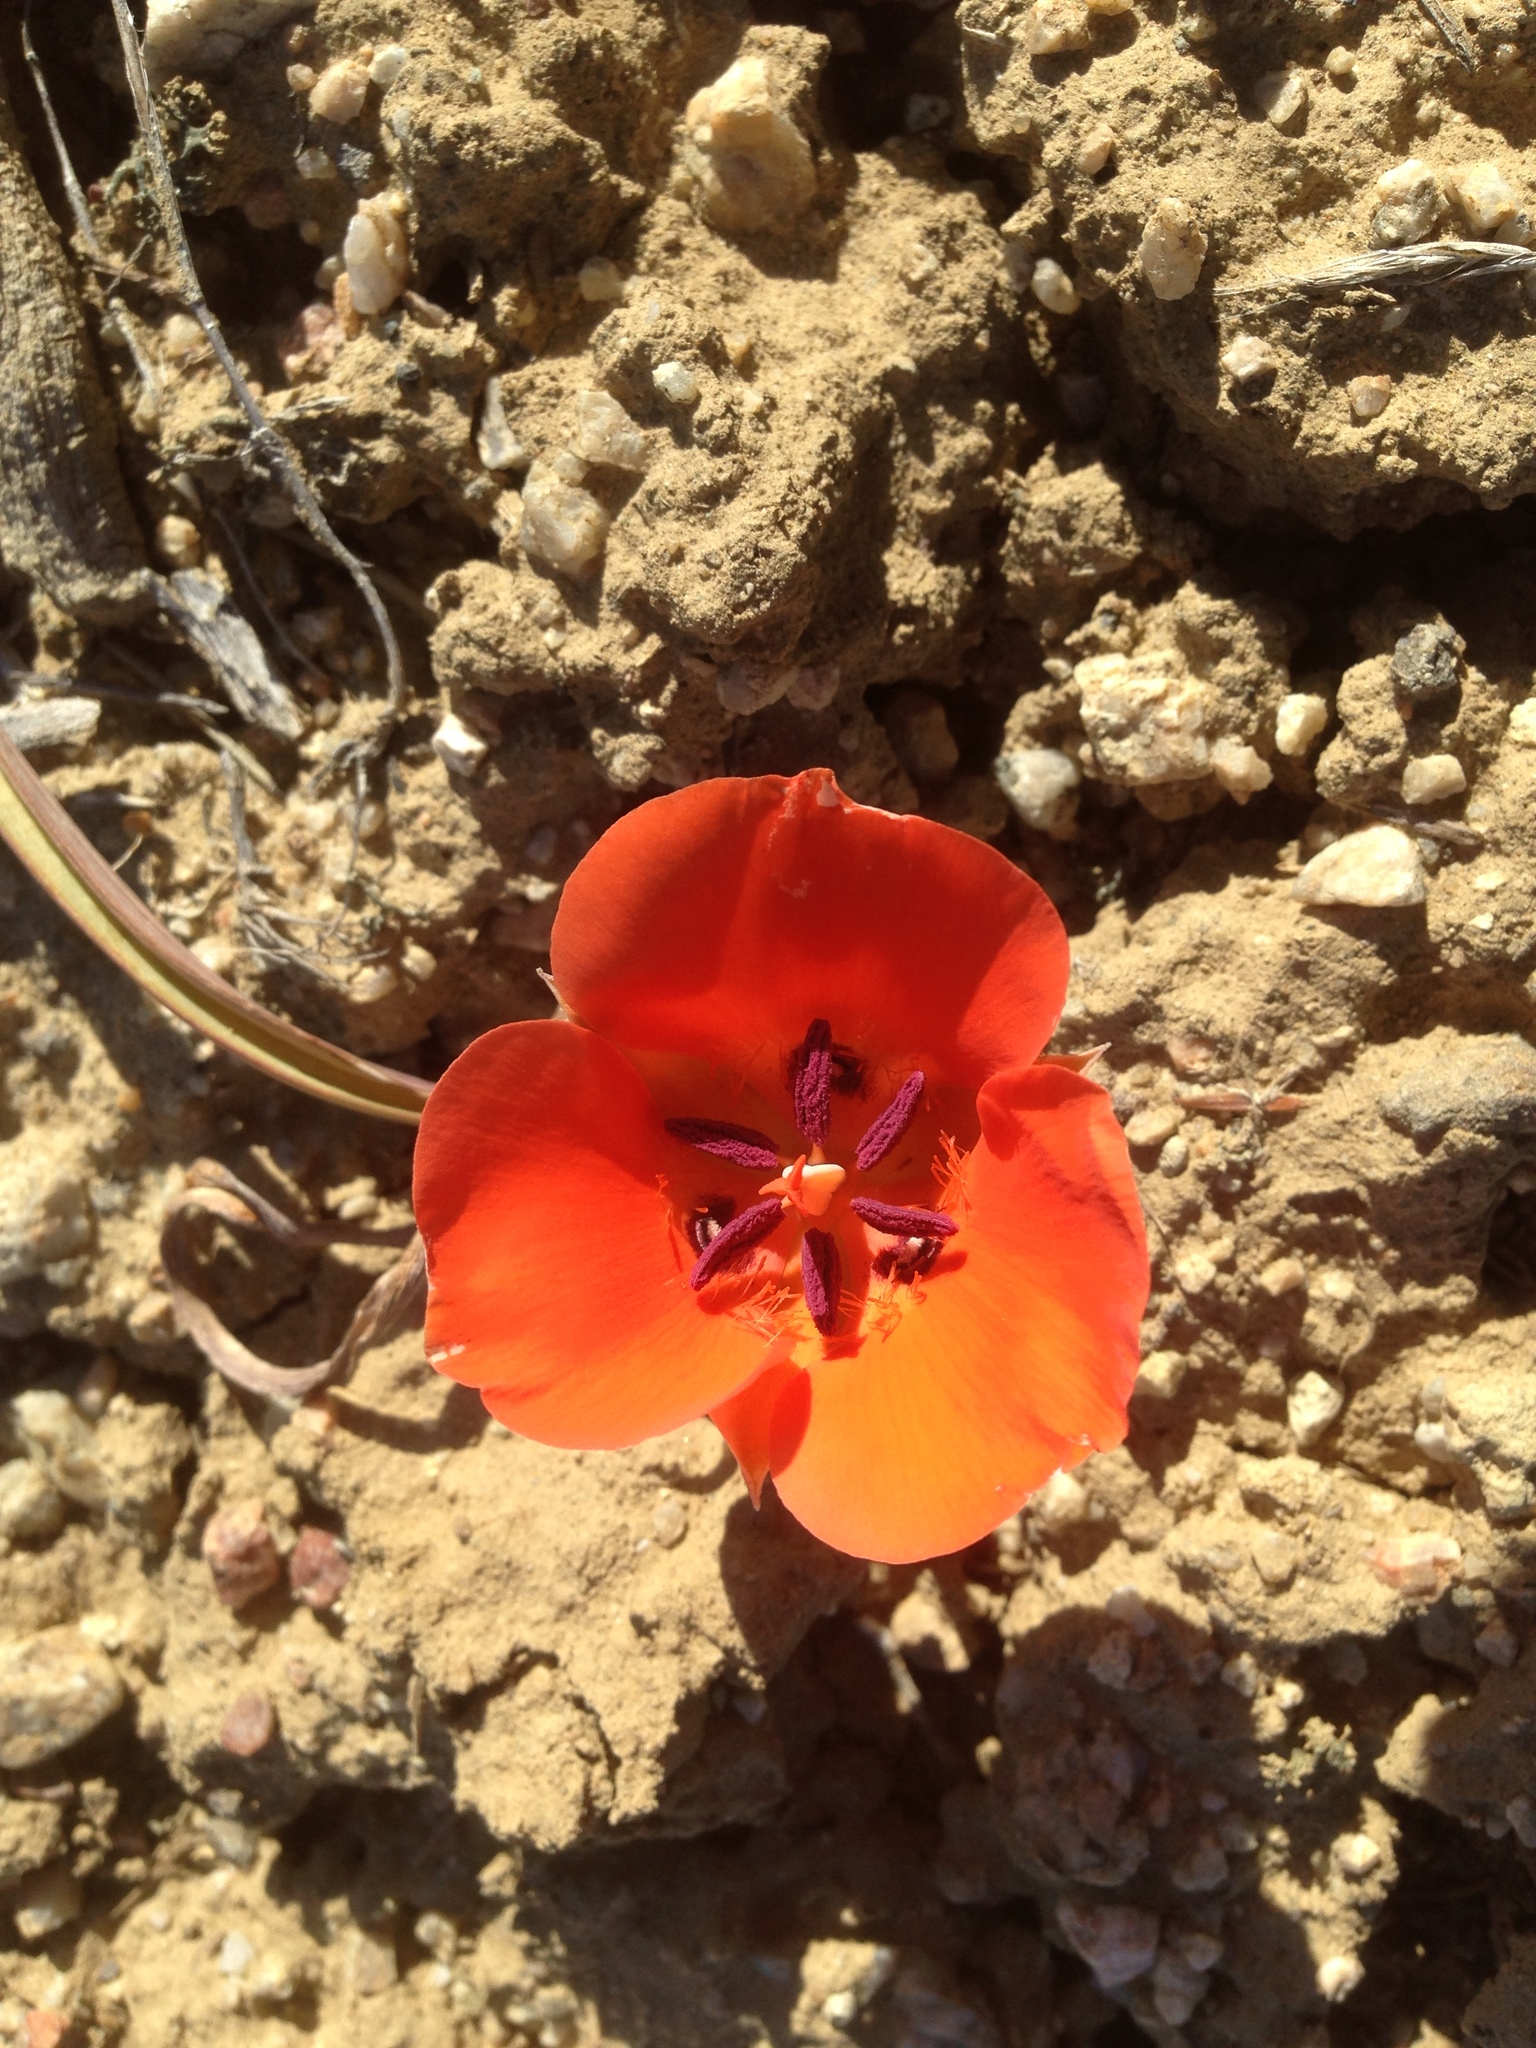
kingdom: Plantae
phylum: Tracheophyta
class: Liliopsida
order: Liliales
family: Liliaceae
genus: Calochortus
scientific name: Calochortus kennedyi
